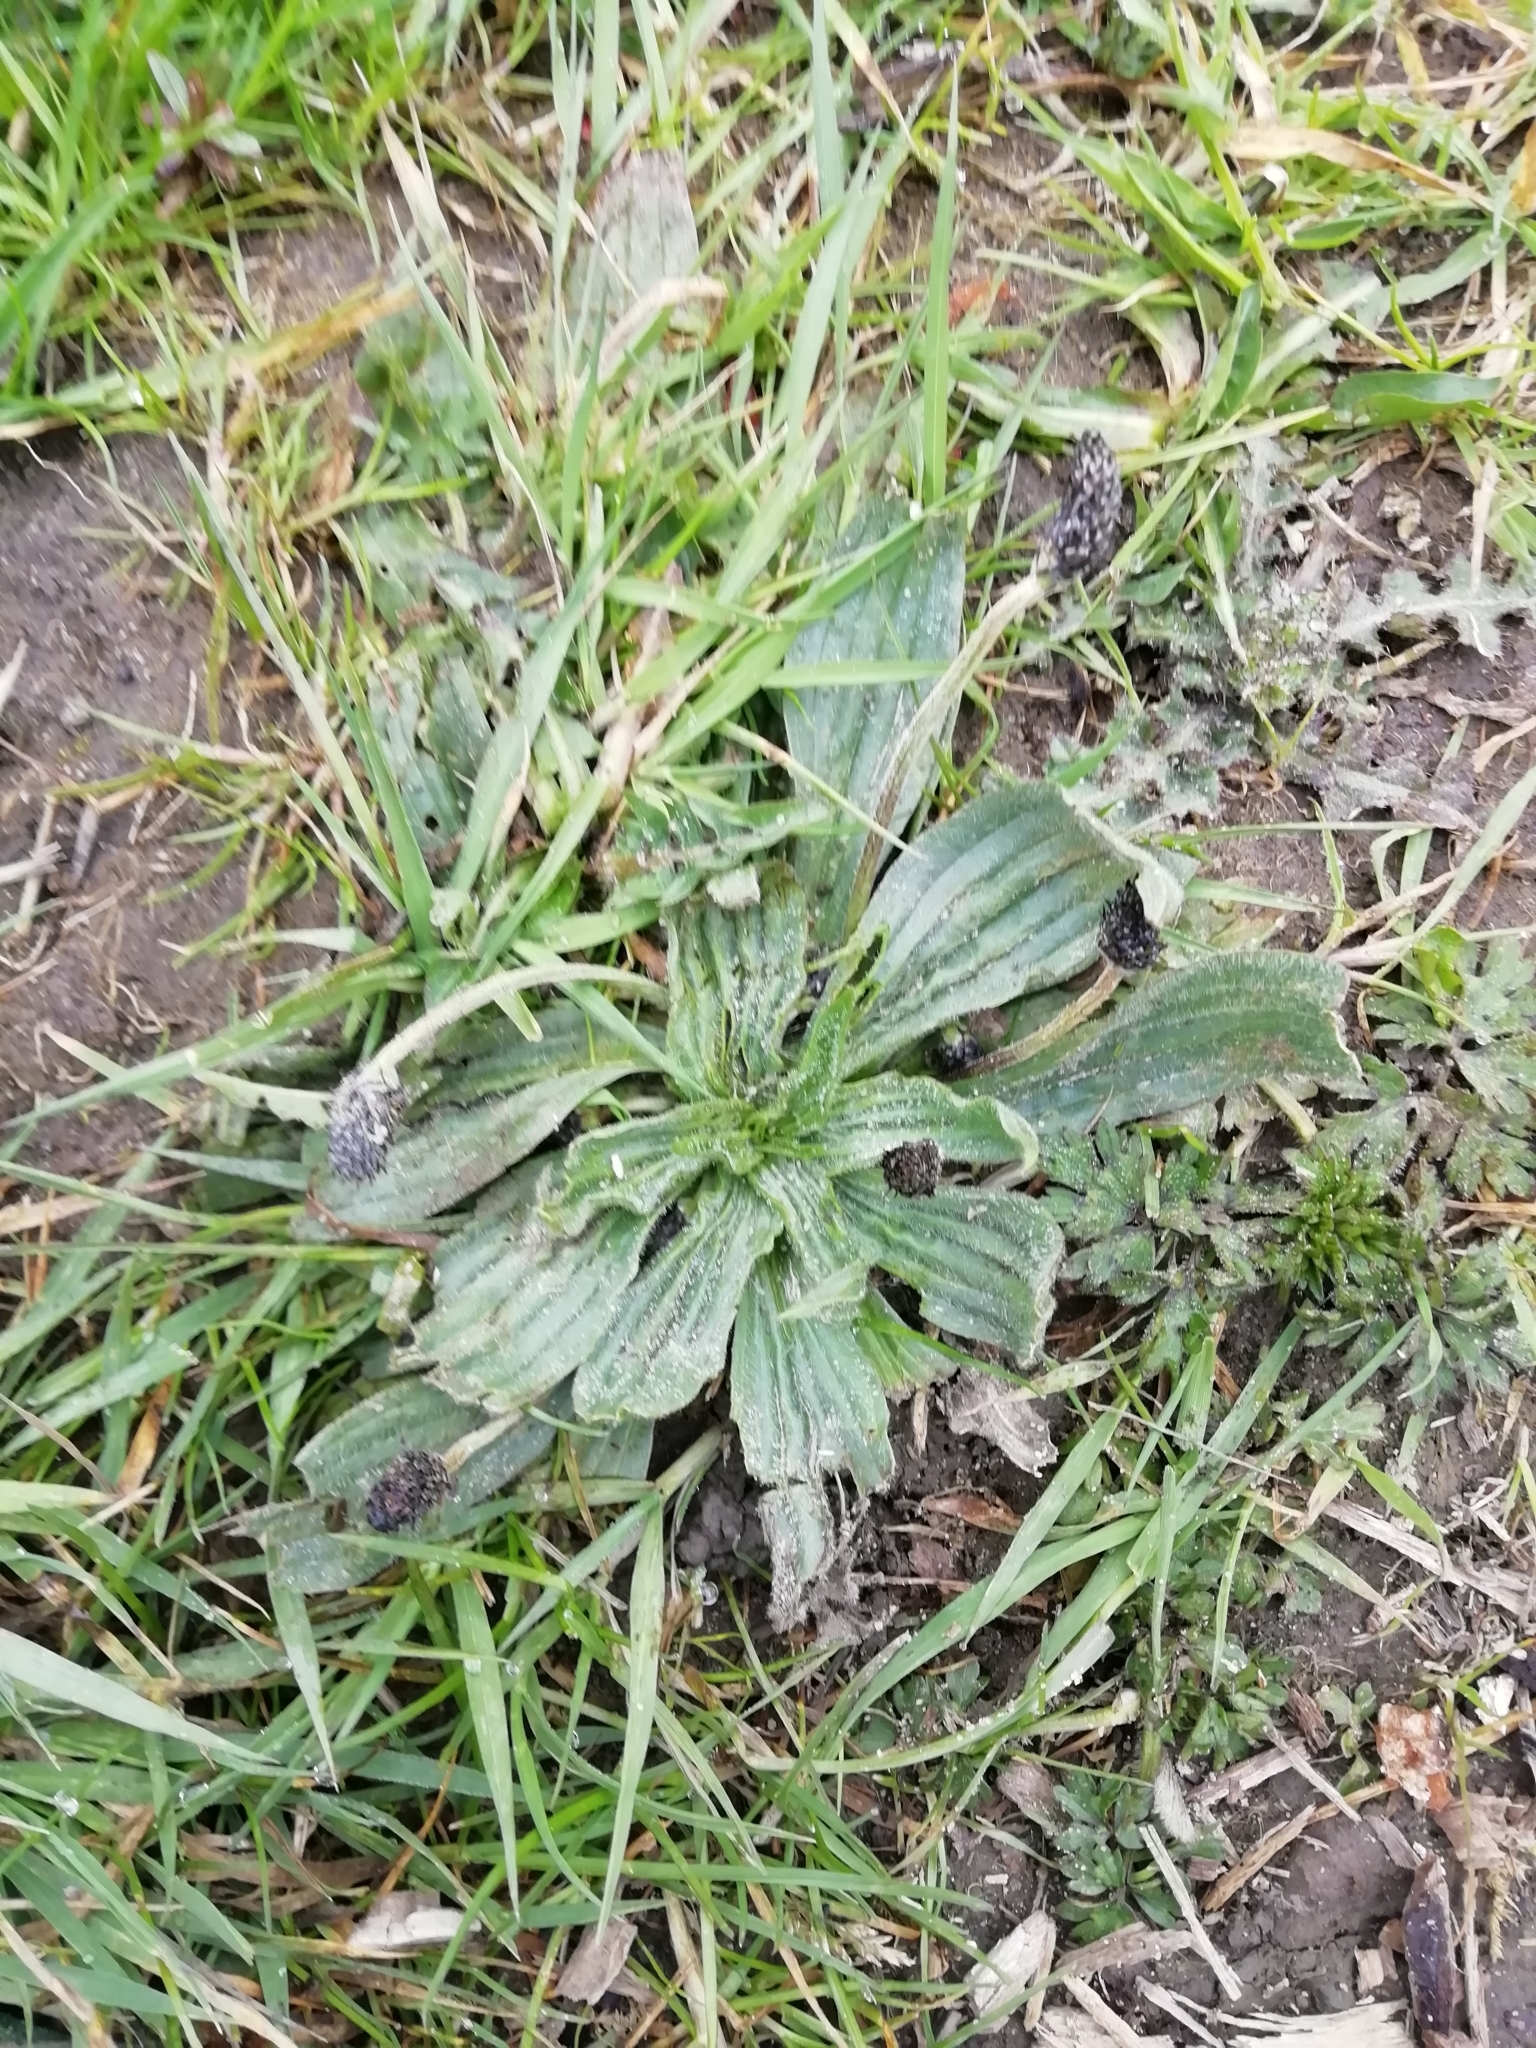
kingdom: Plantae
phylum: Tracheophyta
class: Magnoliopsida
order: Lamiales
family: Plantaginaceae
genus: Plantago
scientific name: Plantago lanceolata
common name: Ribwort plantain
